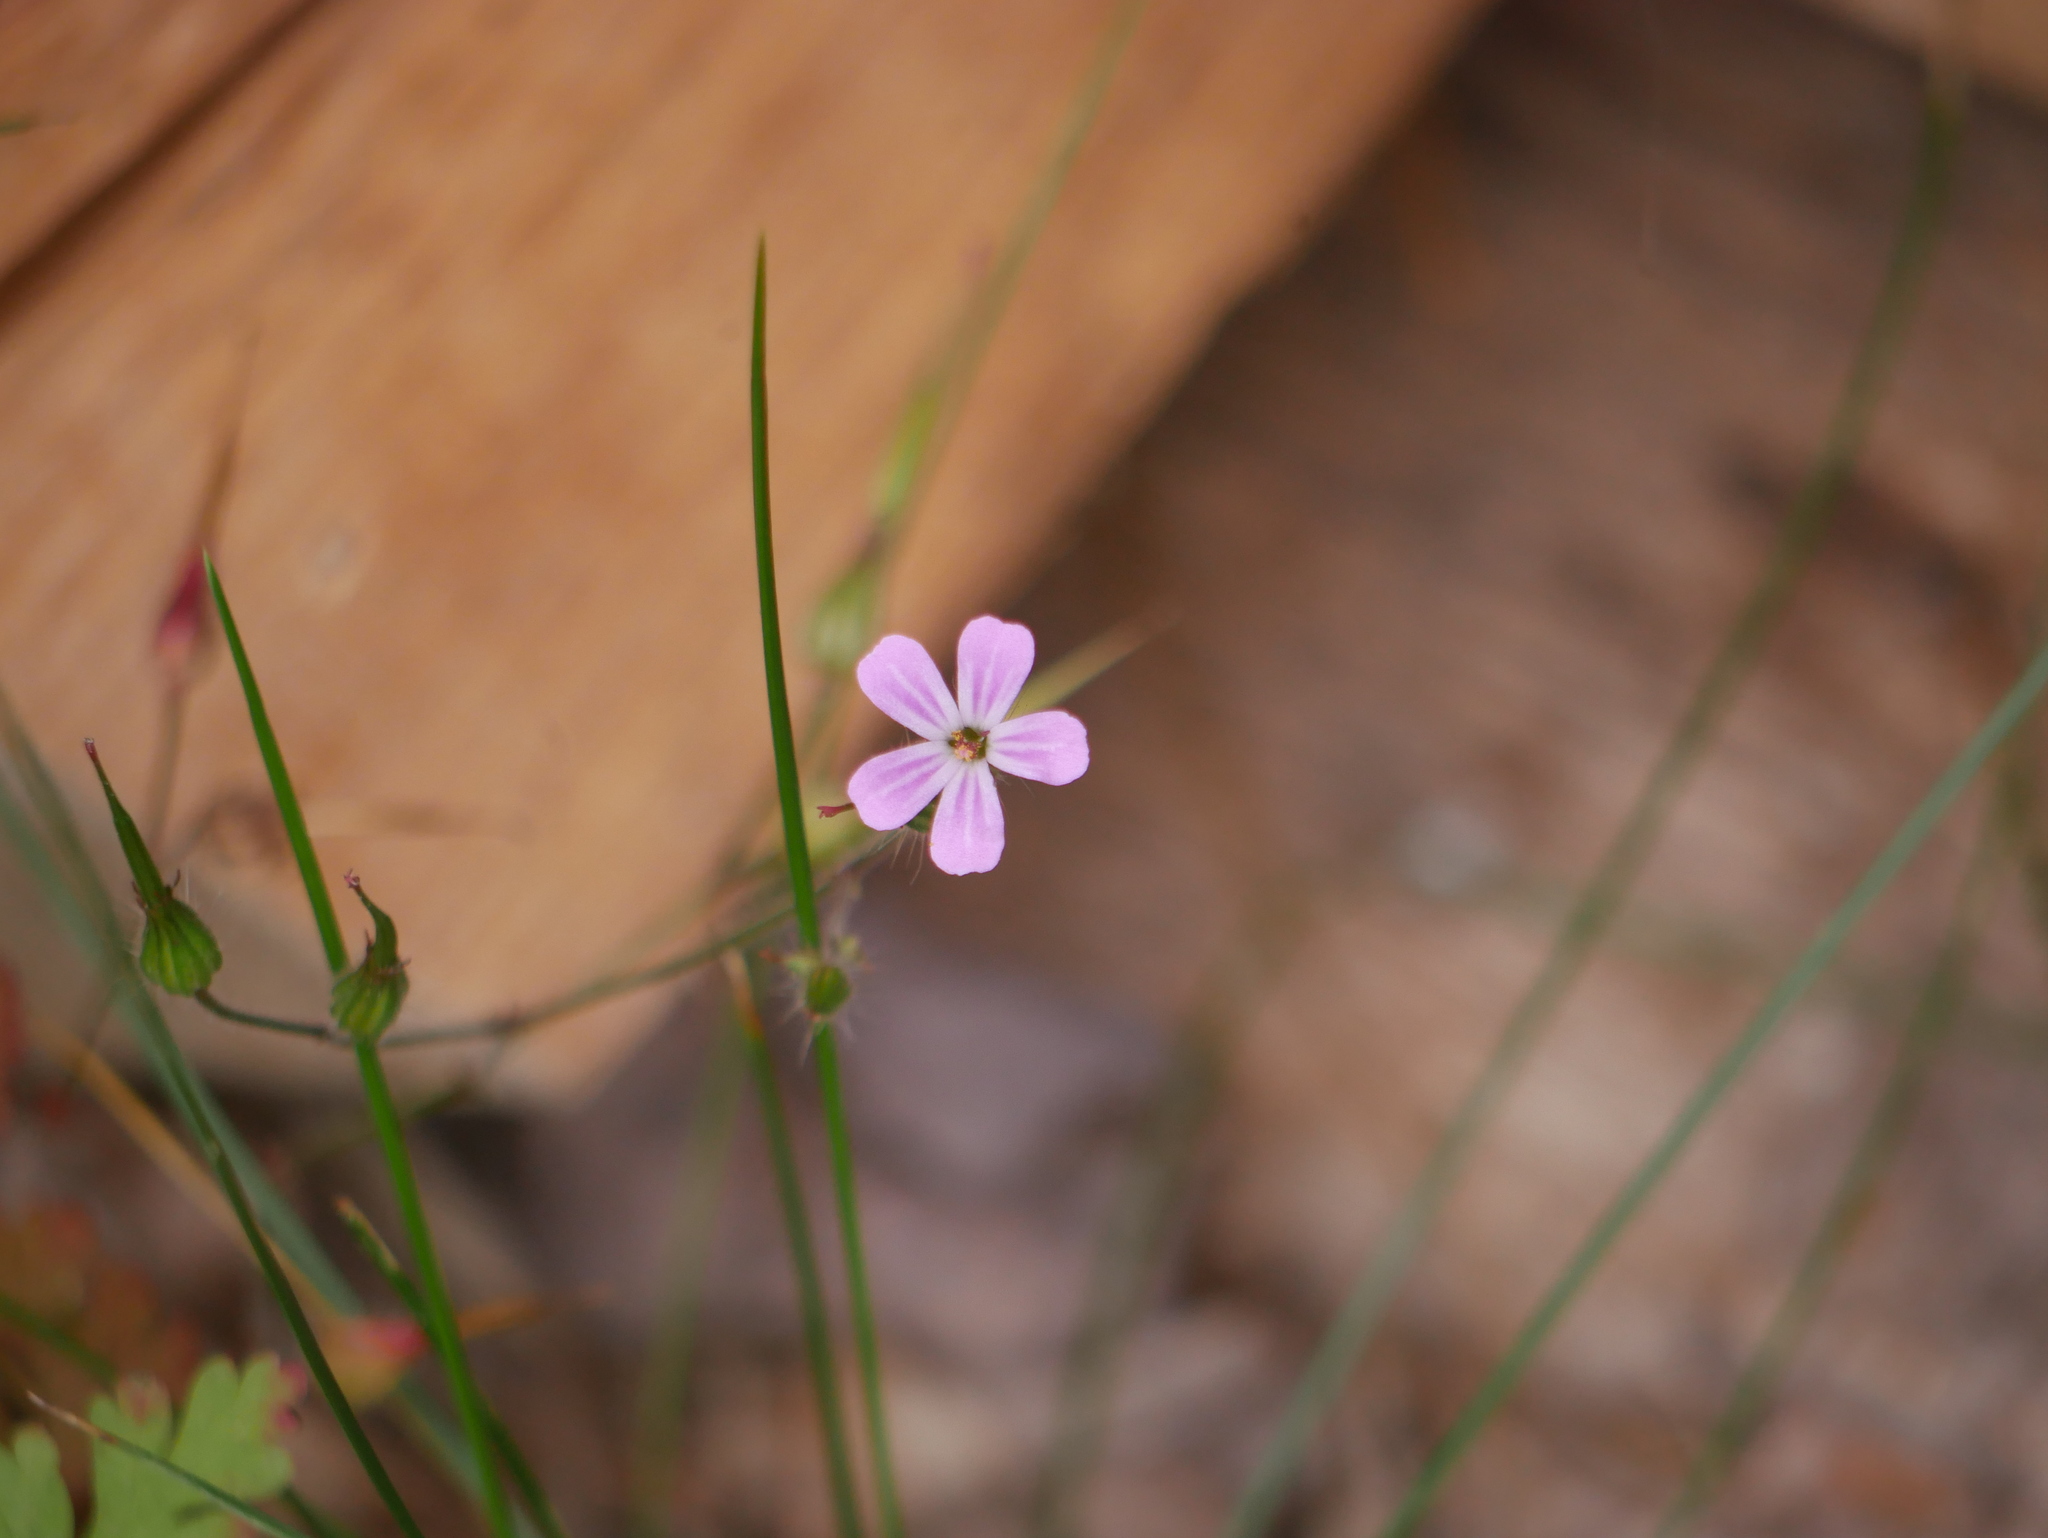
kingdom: Plantae
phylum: Tracheophyta
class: Magnoliopsida
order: Geraniales
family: Geraniaceae
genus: Geranium
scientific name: Geranium robertianum
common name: Herb-robert
